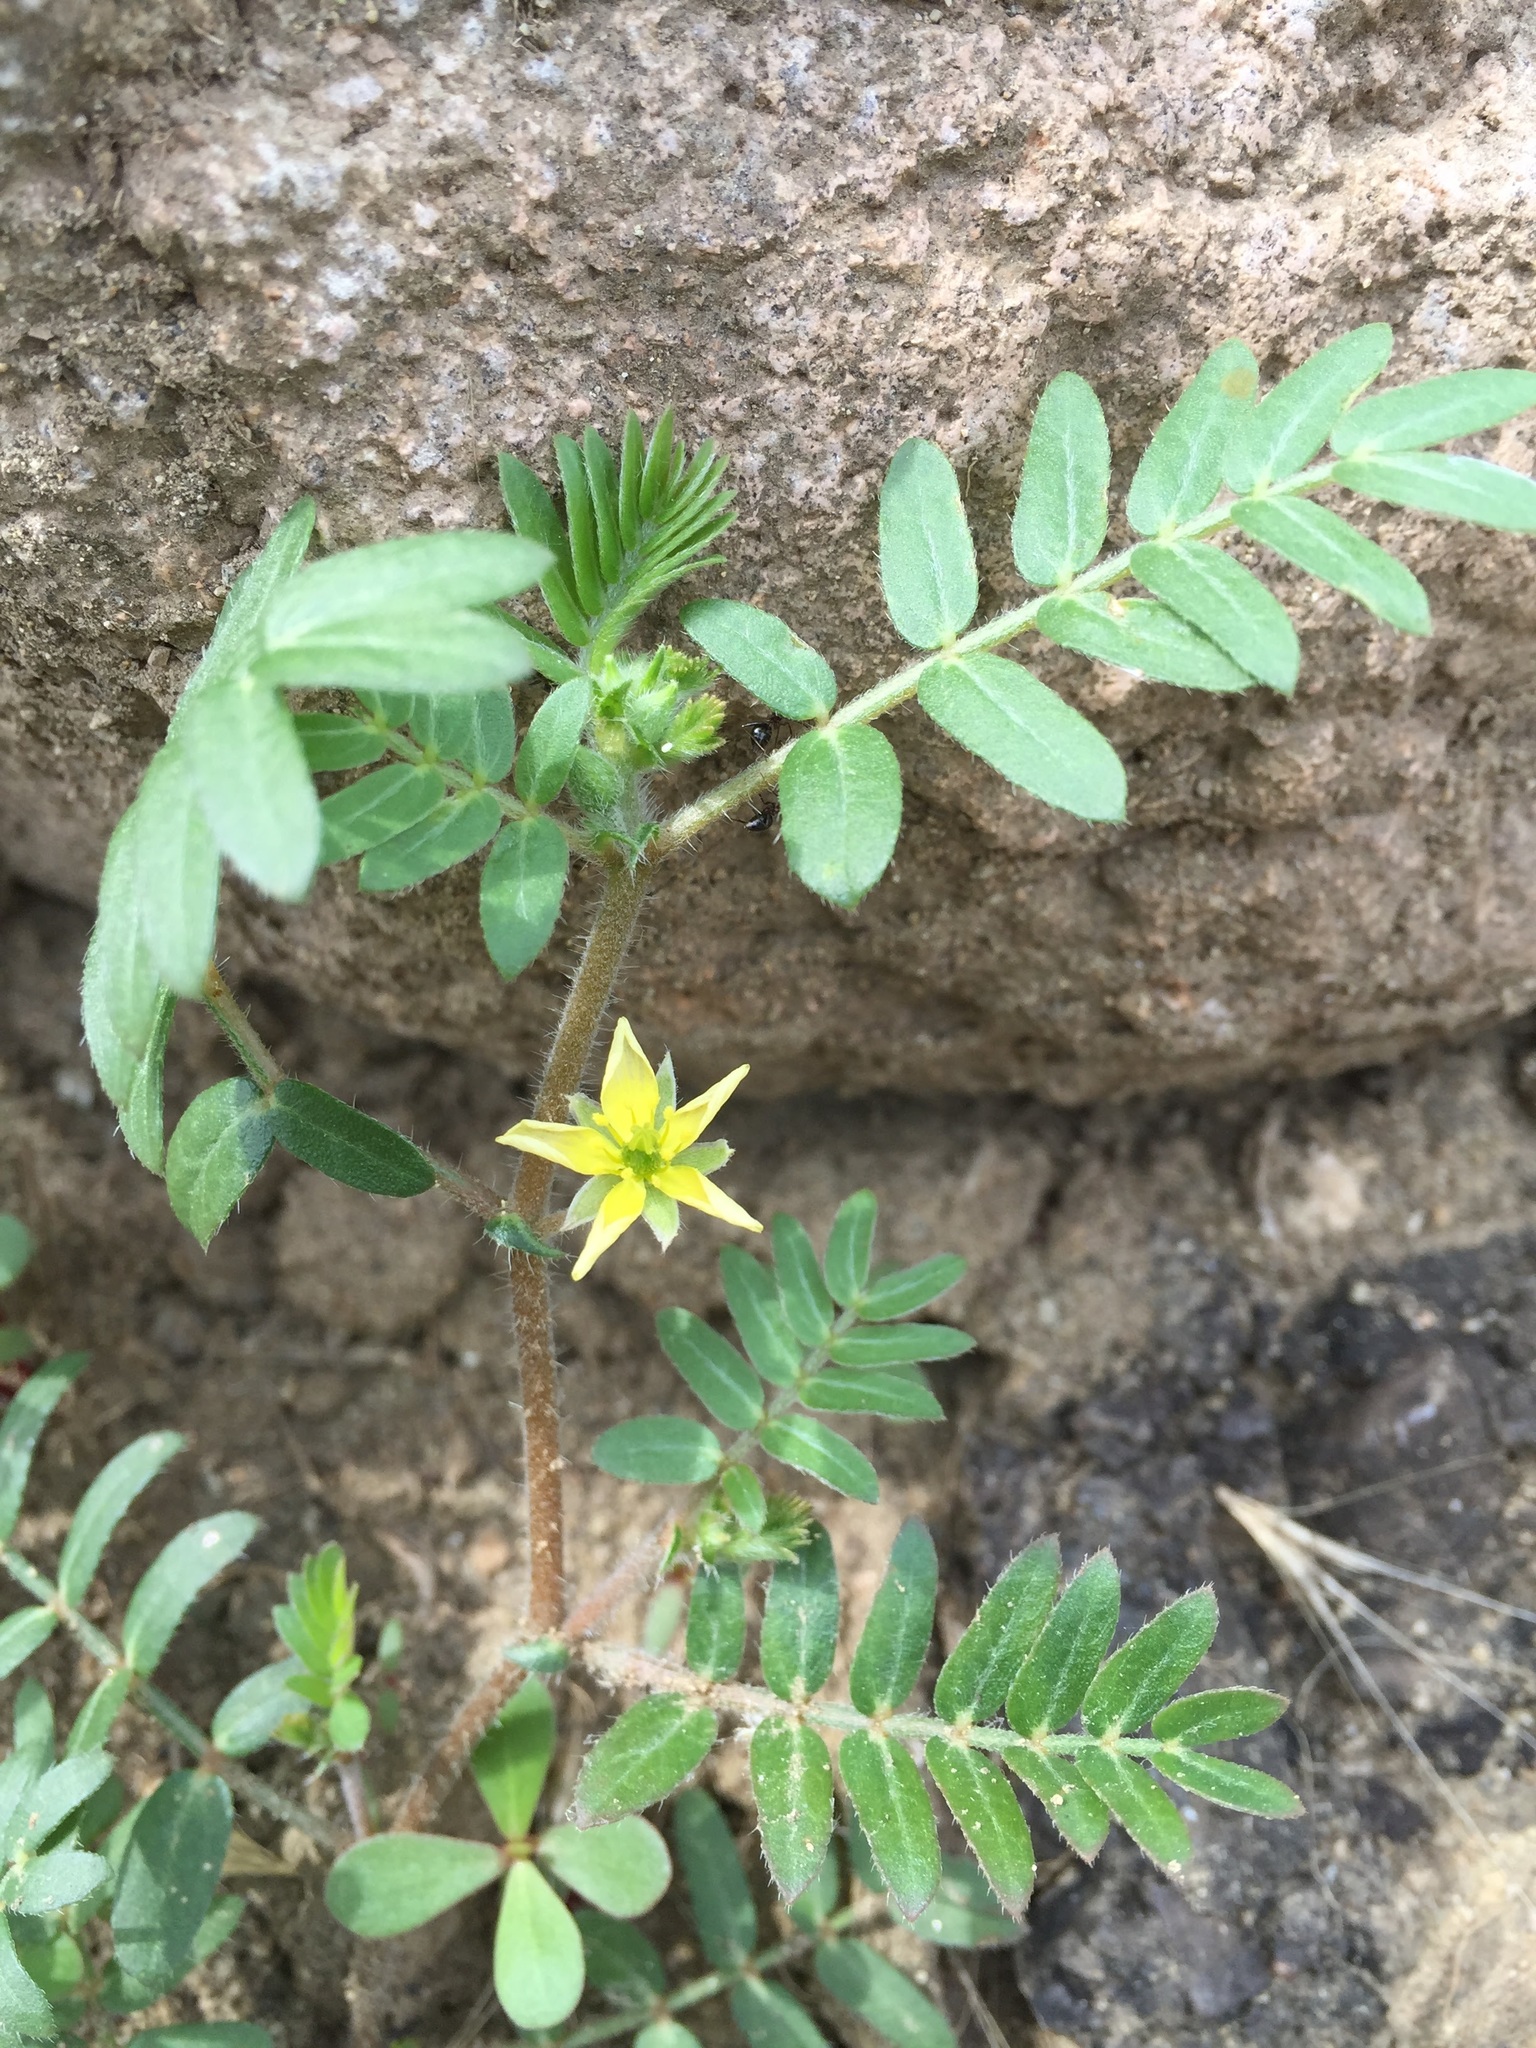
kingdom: Plantae
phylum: Tracheophyta
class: Magnoliopsida
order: Zygophyllales
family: Zygophyllaceae
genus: Tribulus
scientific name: Tribulus terrestris
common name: Puncturevine
